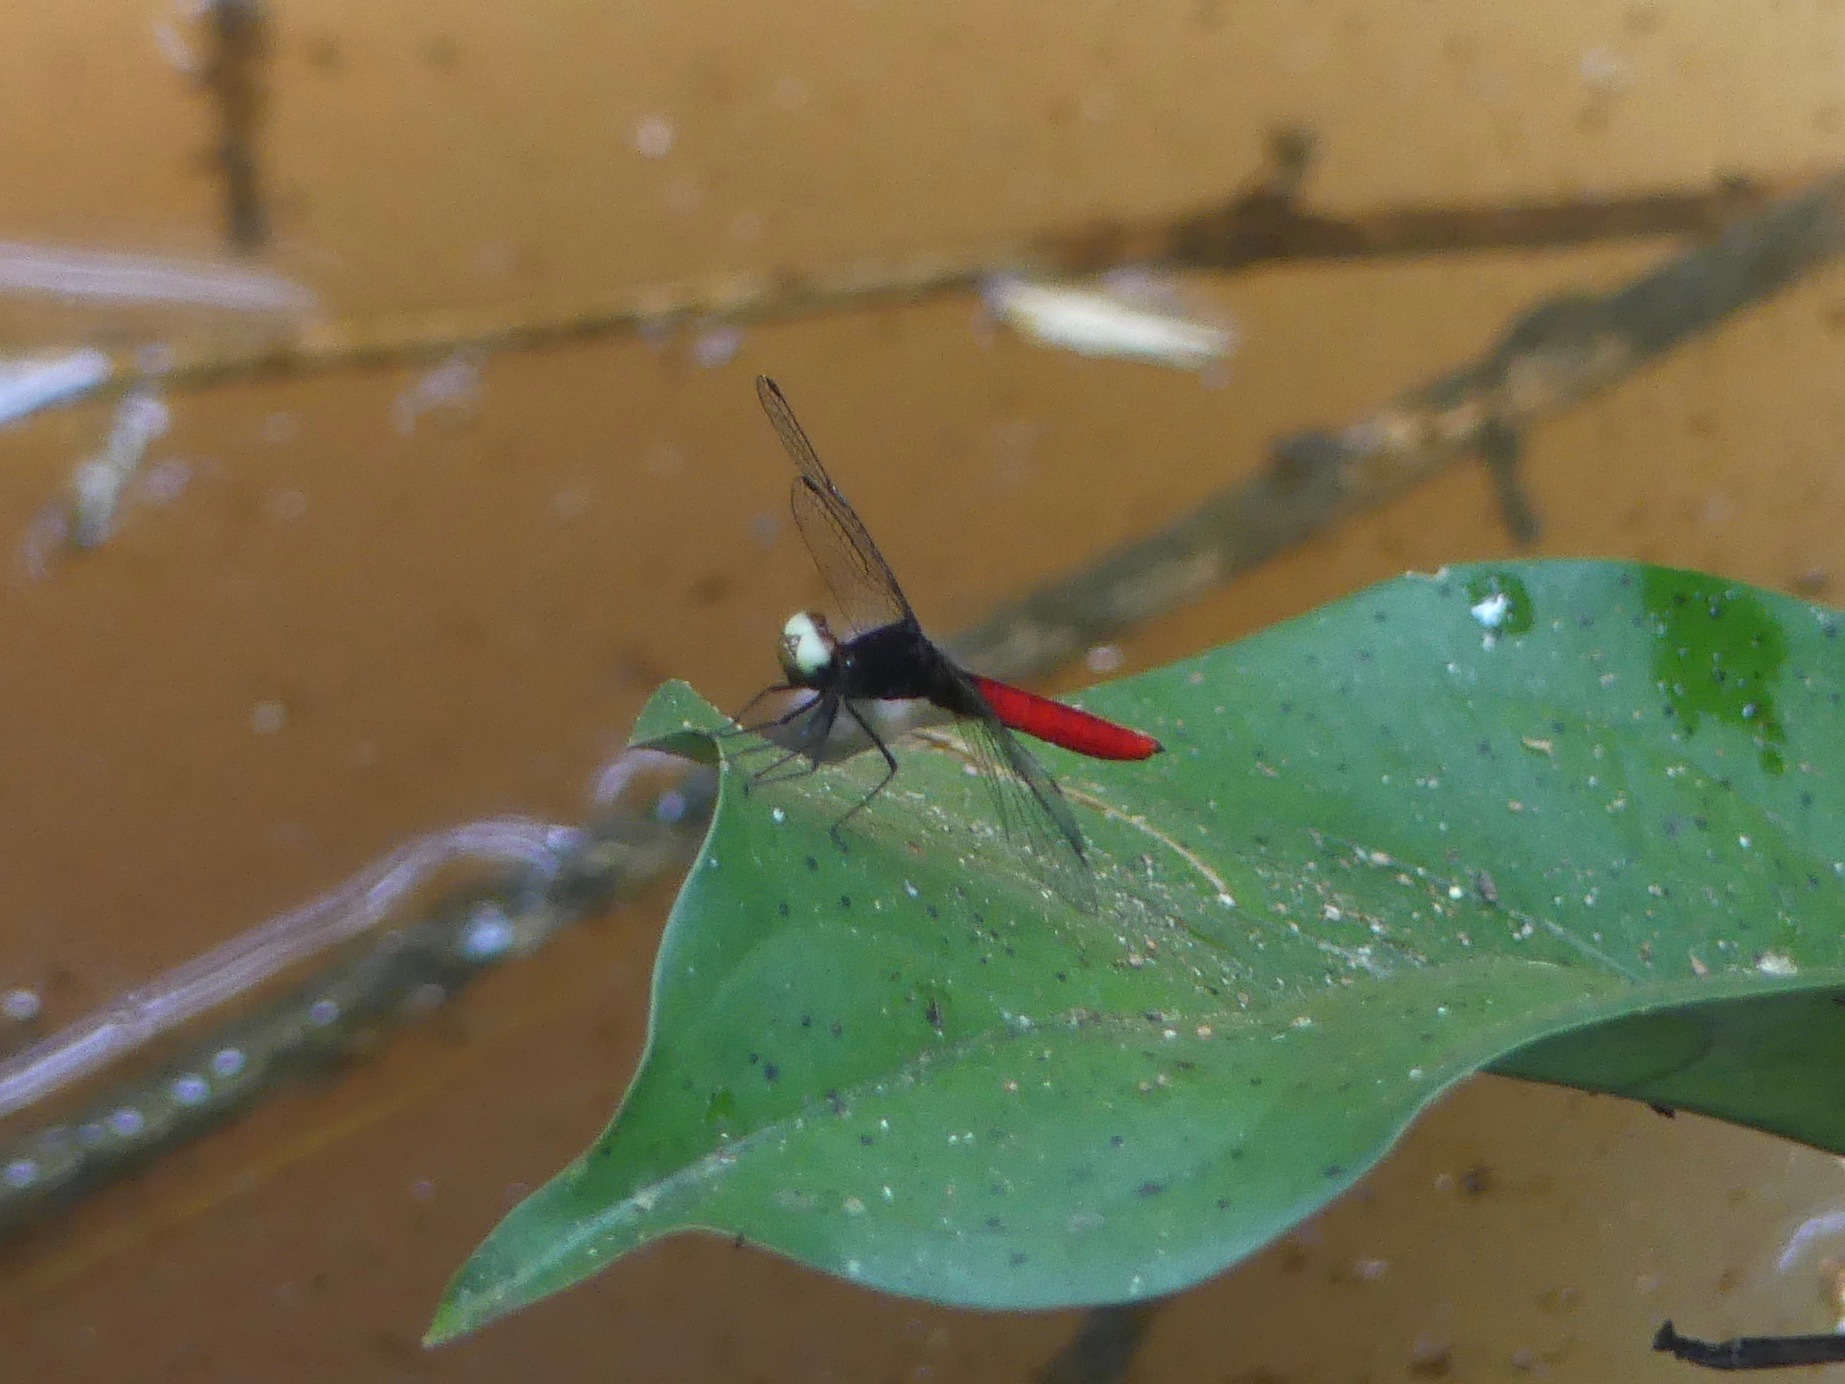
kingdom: Animalia
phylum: Arthropoda
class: Insecta
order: Odonata
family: Libellulidae
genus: Fylgia
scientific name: Fylgia amazonica
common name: White-eyed skimmer
